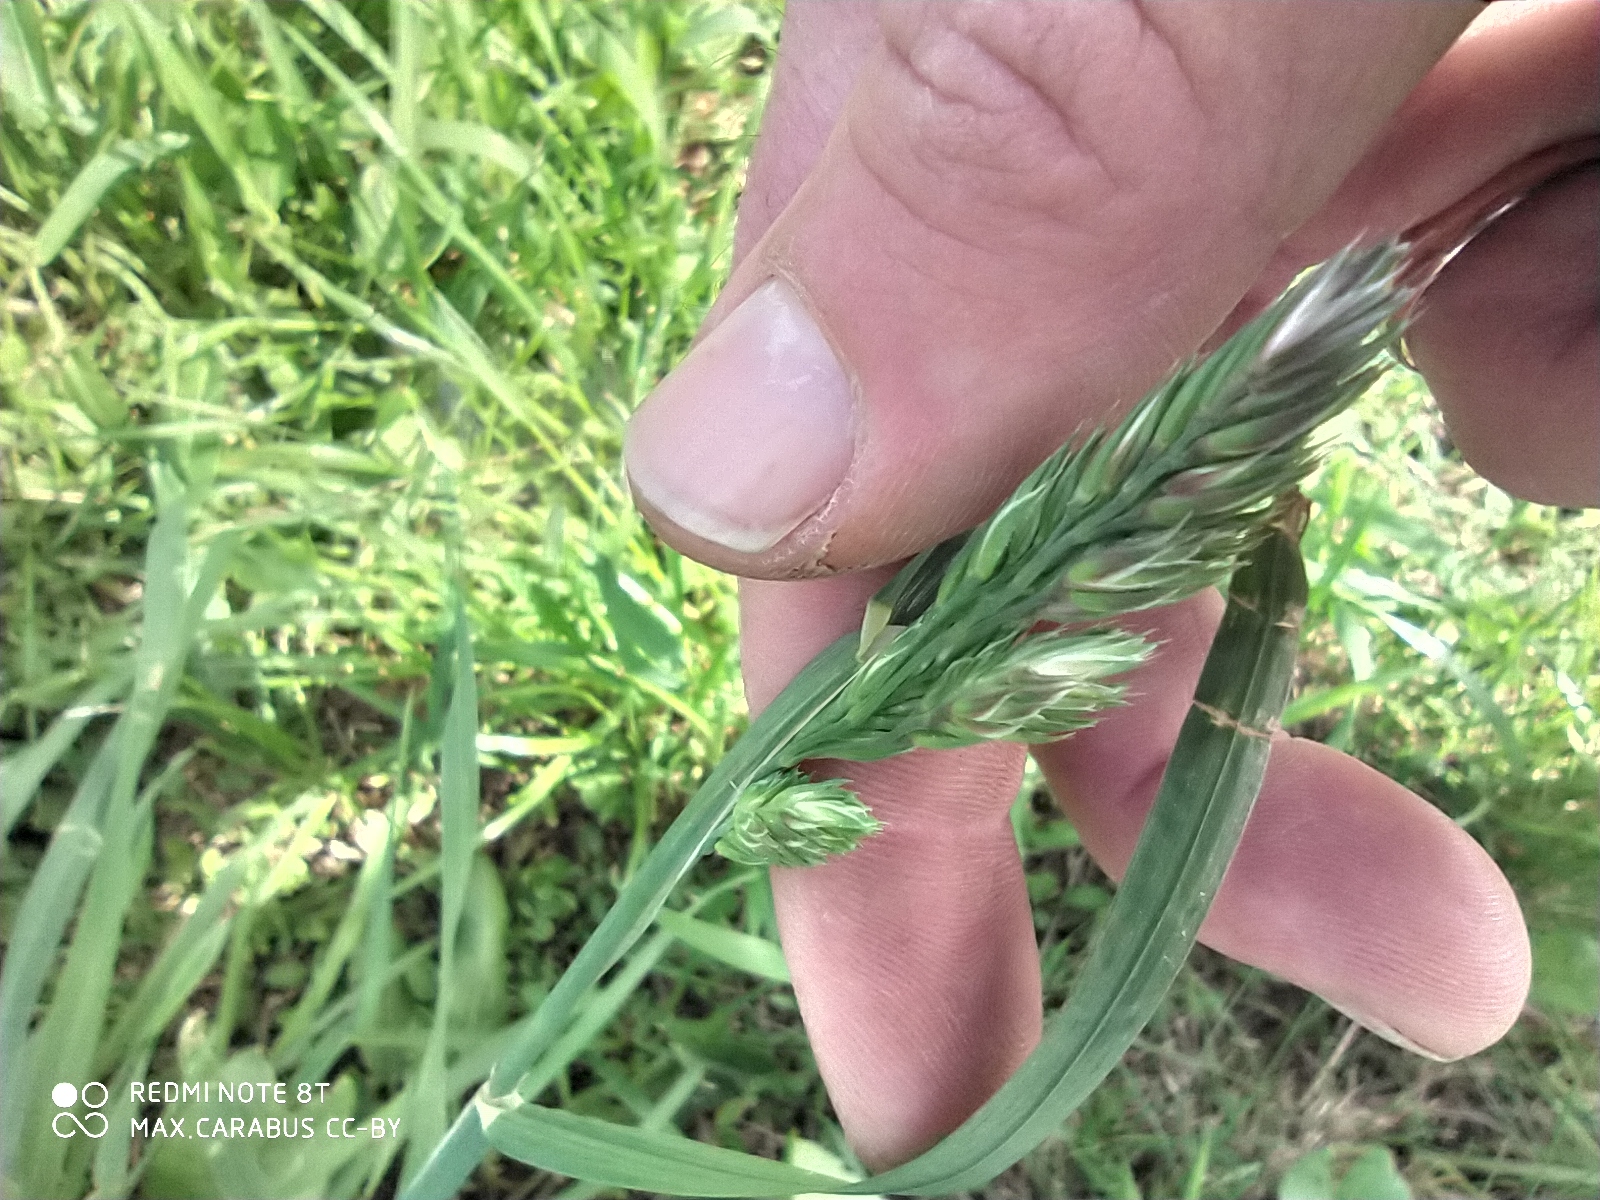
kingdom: Plantae
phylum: Tracheophyta
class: Liliopsida
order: Poales
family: Poaceae
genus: Dactylis
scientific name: Dactylis glomerata
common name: Orchardgrass
